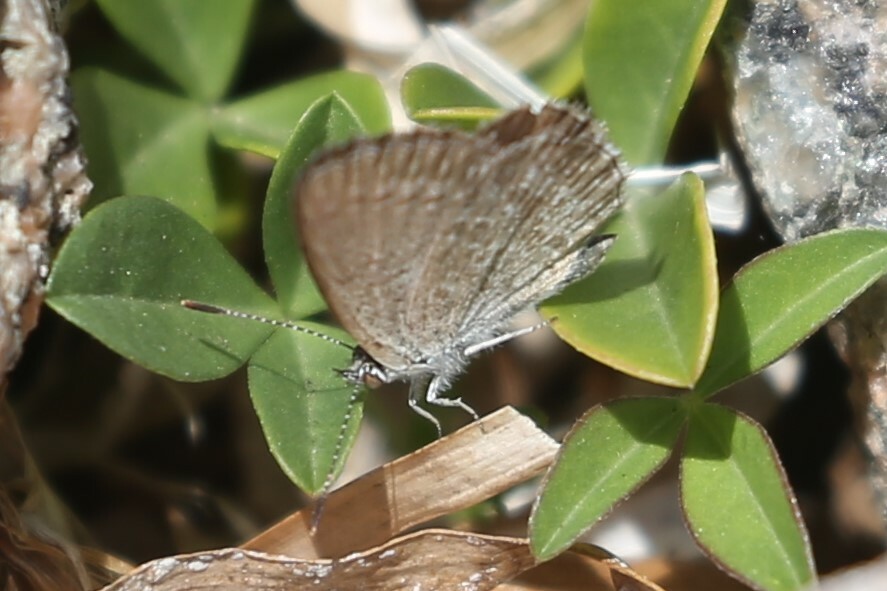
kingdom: Animalia
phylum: Arthropoda
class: Insecta
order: Lepidoptera
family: Lycaenidae
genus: Zizina
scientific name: Zizina otis
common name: Lesser grass blue
